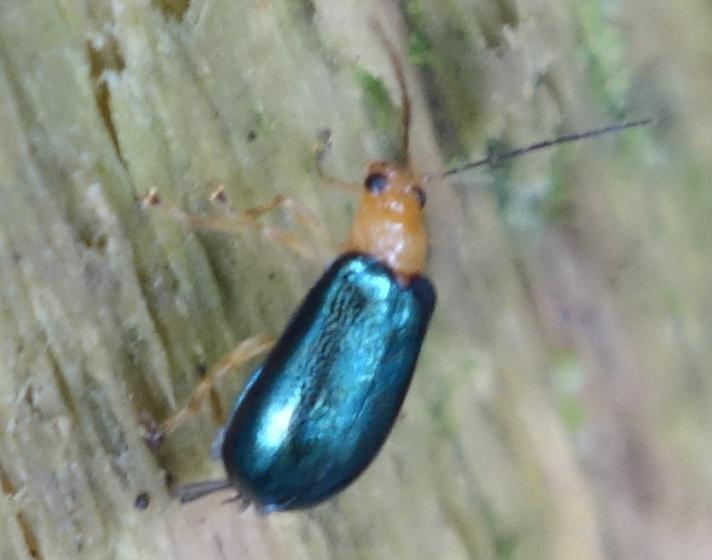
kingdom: Animalia
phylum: Arthropoda
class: Insecta
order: Coleoptera
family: Chrysomelidae
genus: Paragetocera
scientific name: Paragetocera involuta
